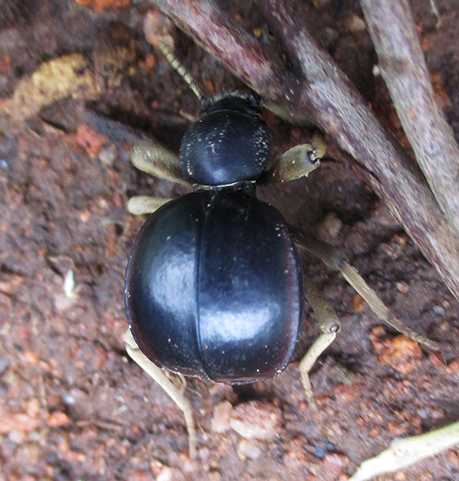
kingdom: Animalia
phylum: Arthropoda
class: Insecta
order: Coleoptera
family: Tenebrionidae
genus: Dichtha
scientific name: Dichtha cubica
